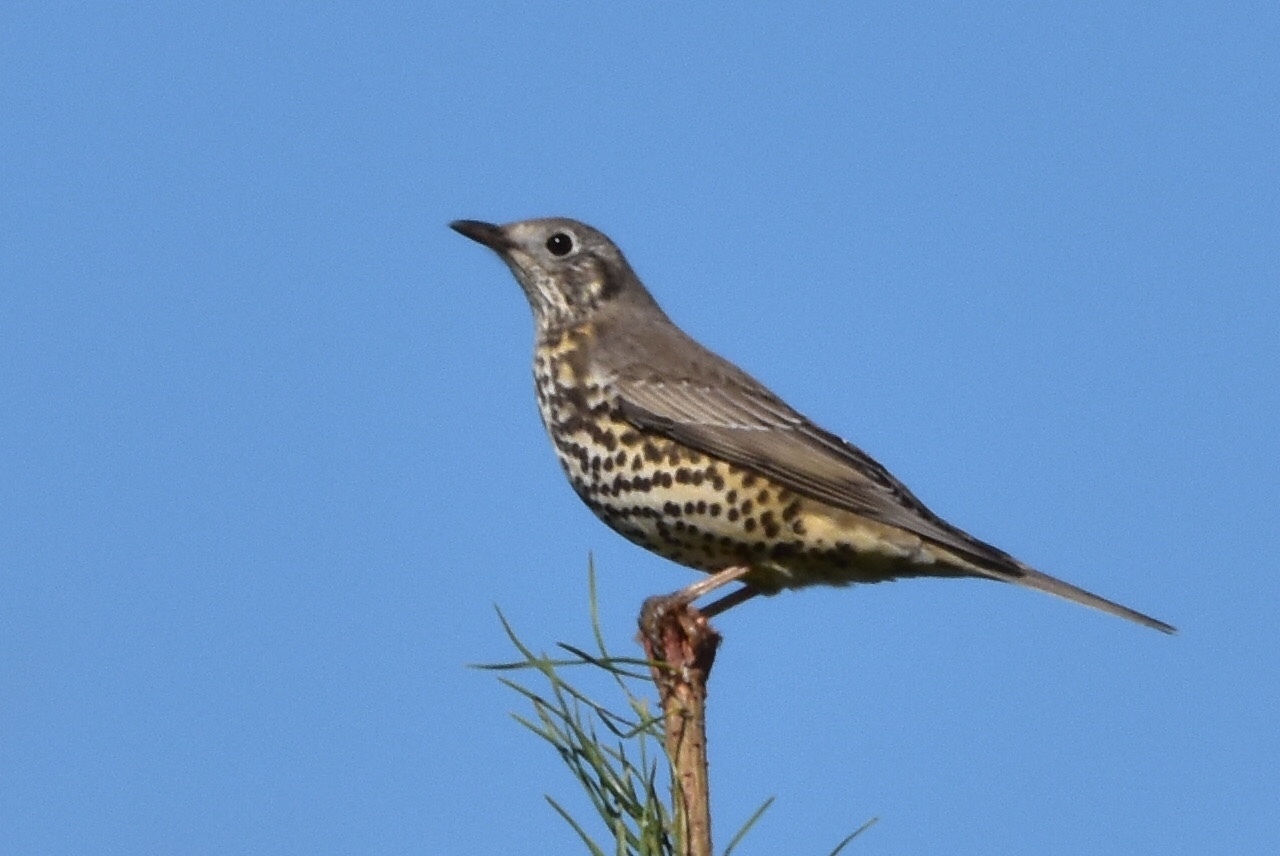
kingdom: Animalia
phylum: Chordata
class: Aves
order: Passeriformes
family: Turdidae
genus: Turdus
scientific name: Turdus viscivorus
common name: Mistle thrush
